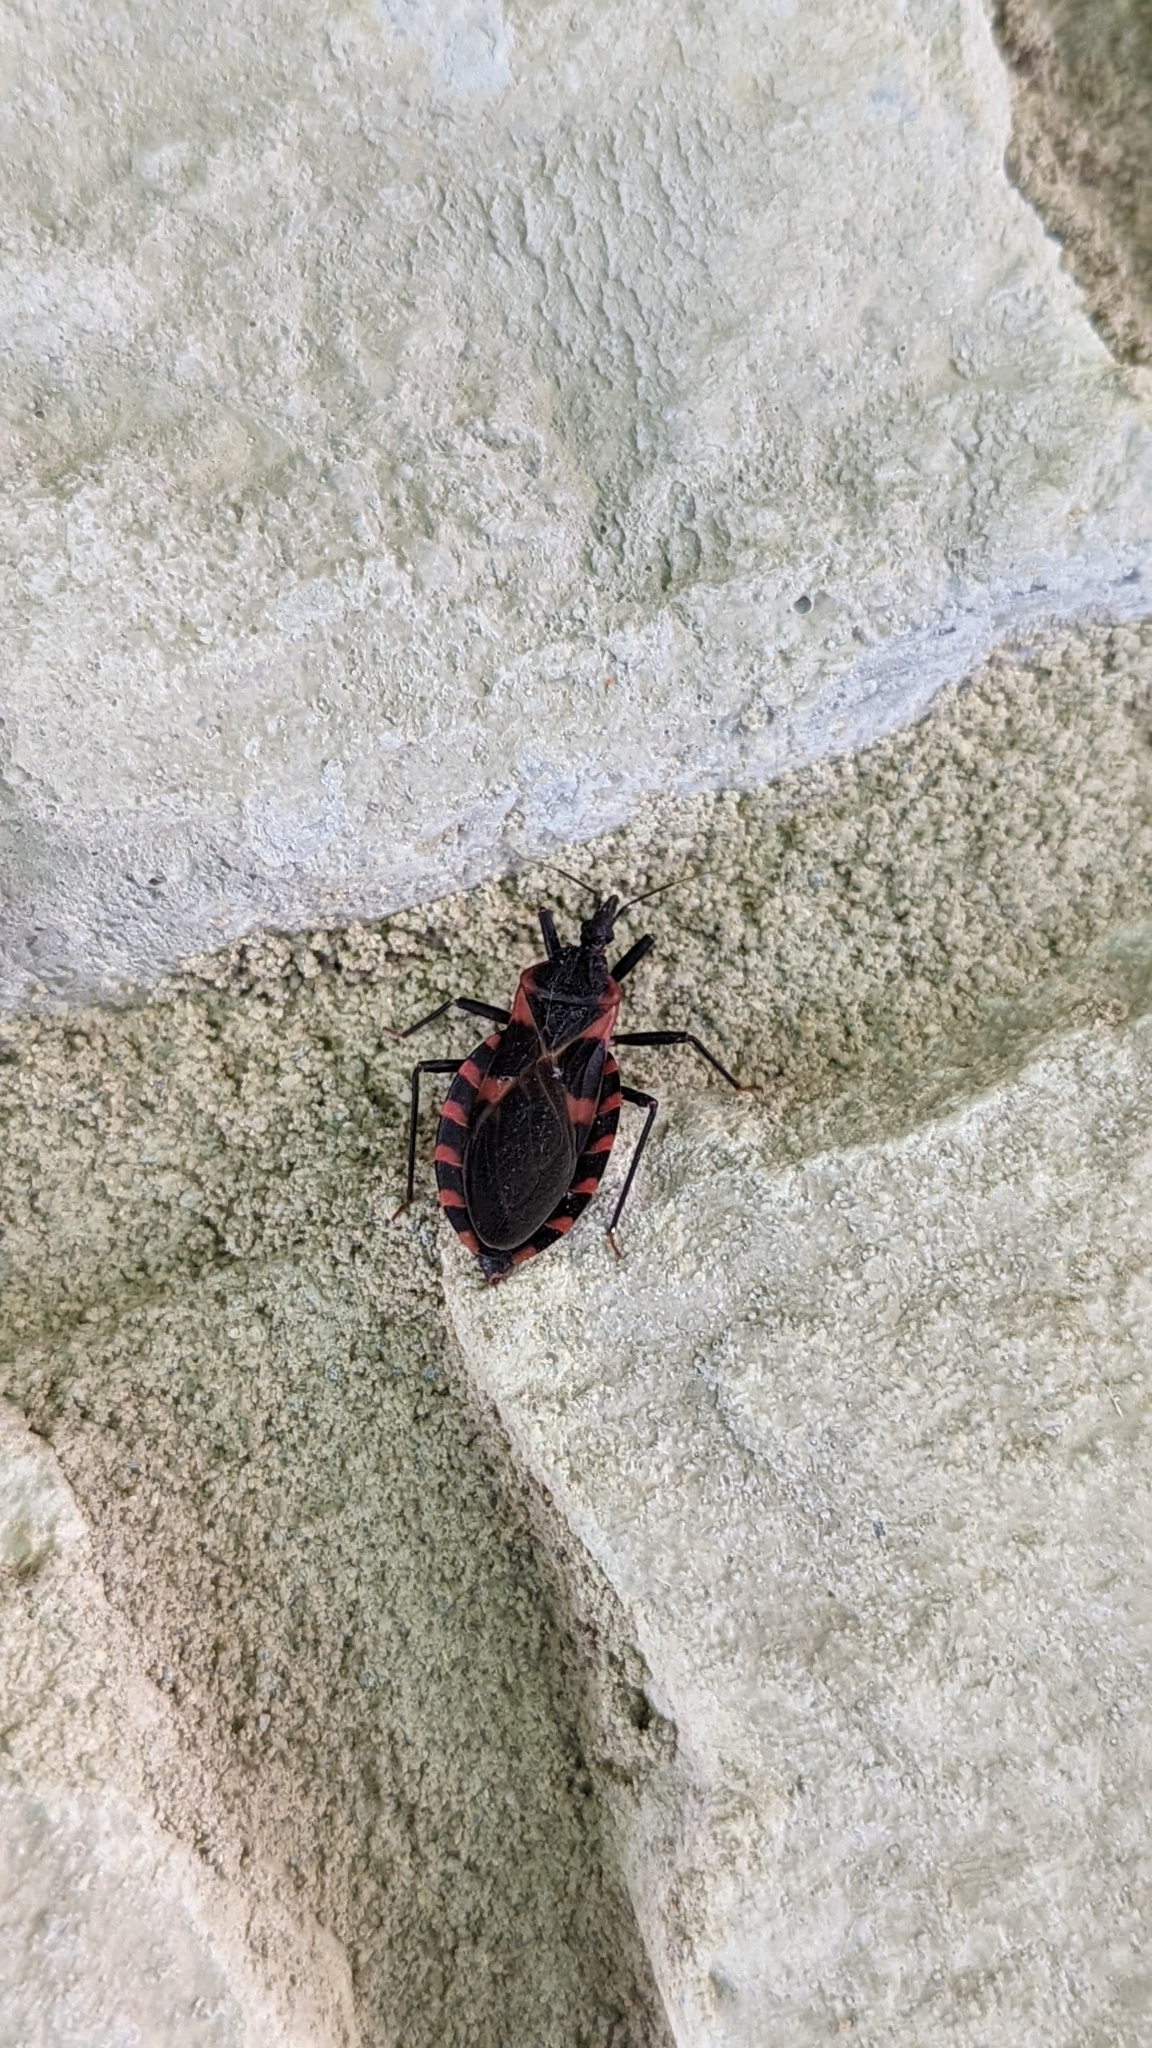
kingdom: Animalia
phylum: Arthropoda
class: Insecta
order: Hemiptera
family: Reduviidae
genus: Triatoma
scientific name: Triatoma sanguisuga
